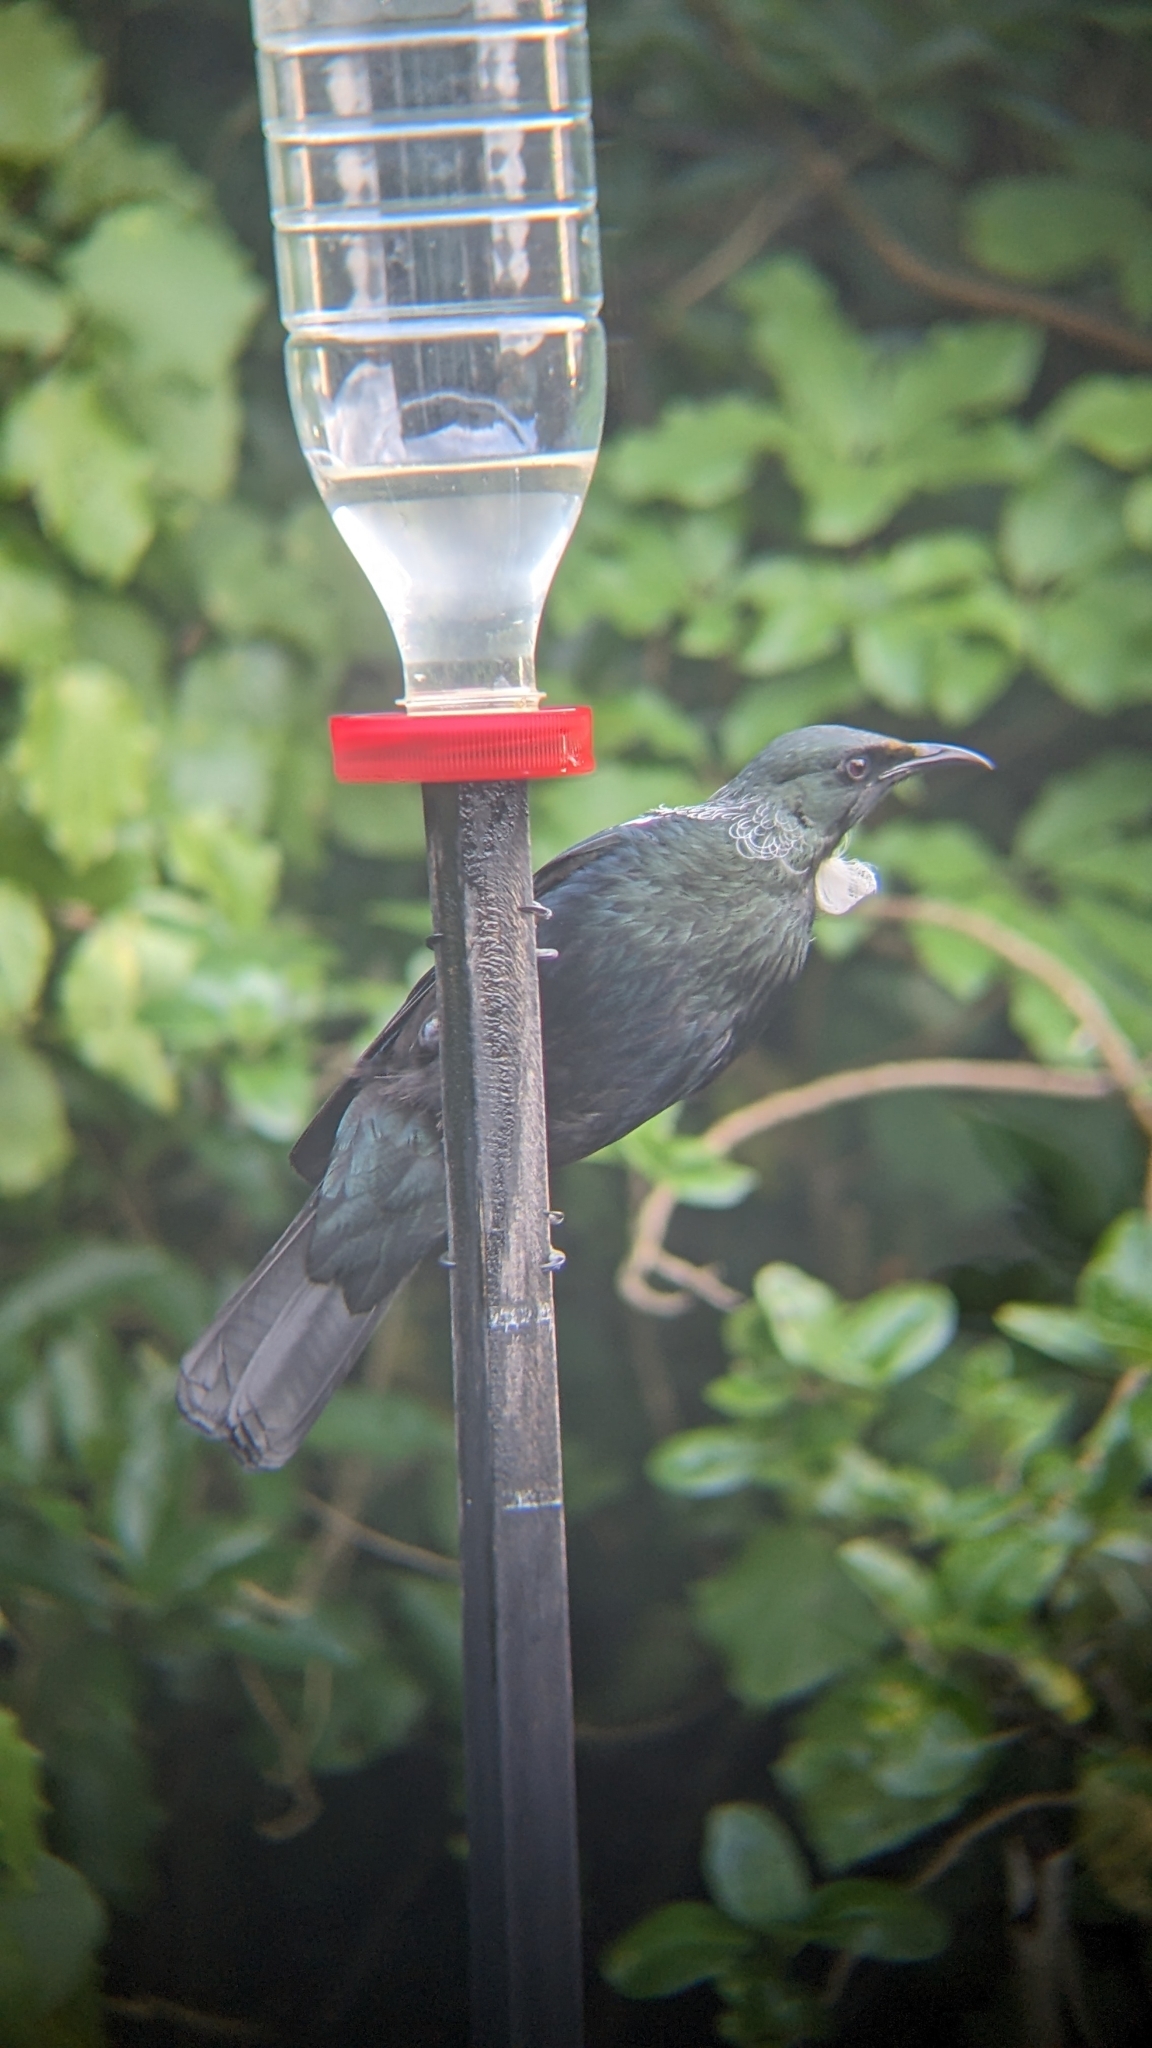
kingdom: Animalia
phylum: Chordata
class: Aves
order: Passeriformes
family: Meliphagidae
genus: Prosthemadera
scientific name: Prosthemadera novaeseelandiae
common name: Tui
